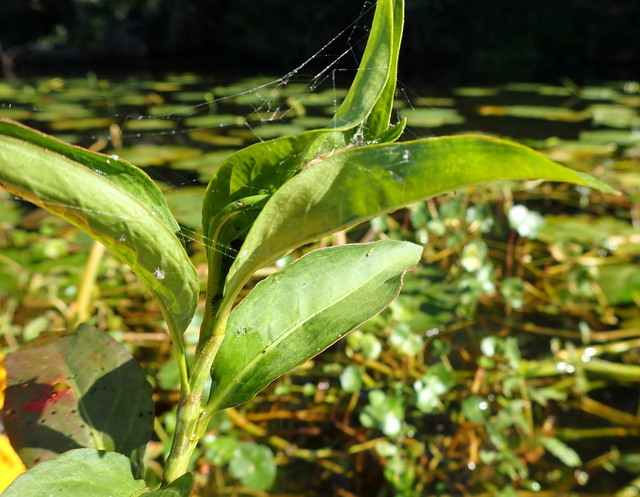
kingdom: Animalia
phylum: Arthropoda
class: Arachnida
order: Araneae
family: Araneidae
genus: Larinioides
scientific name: Larinioides cornutus
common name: Furrow orbweaver
